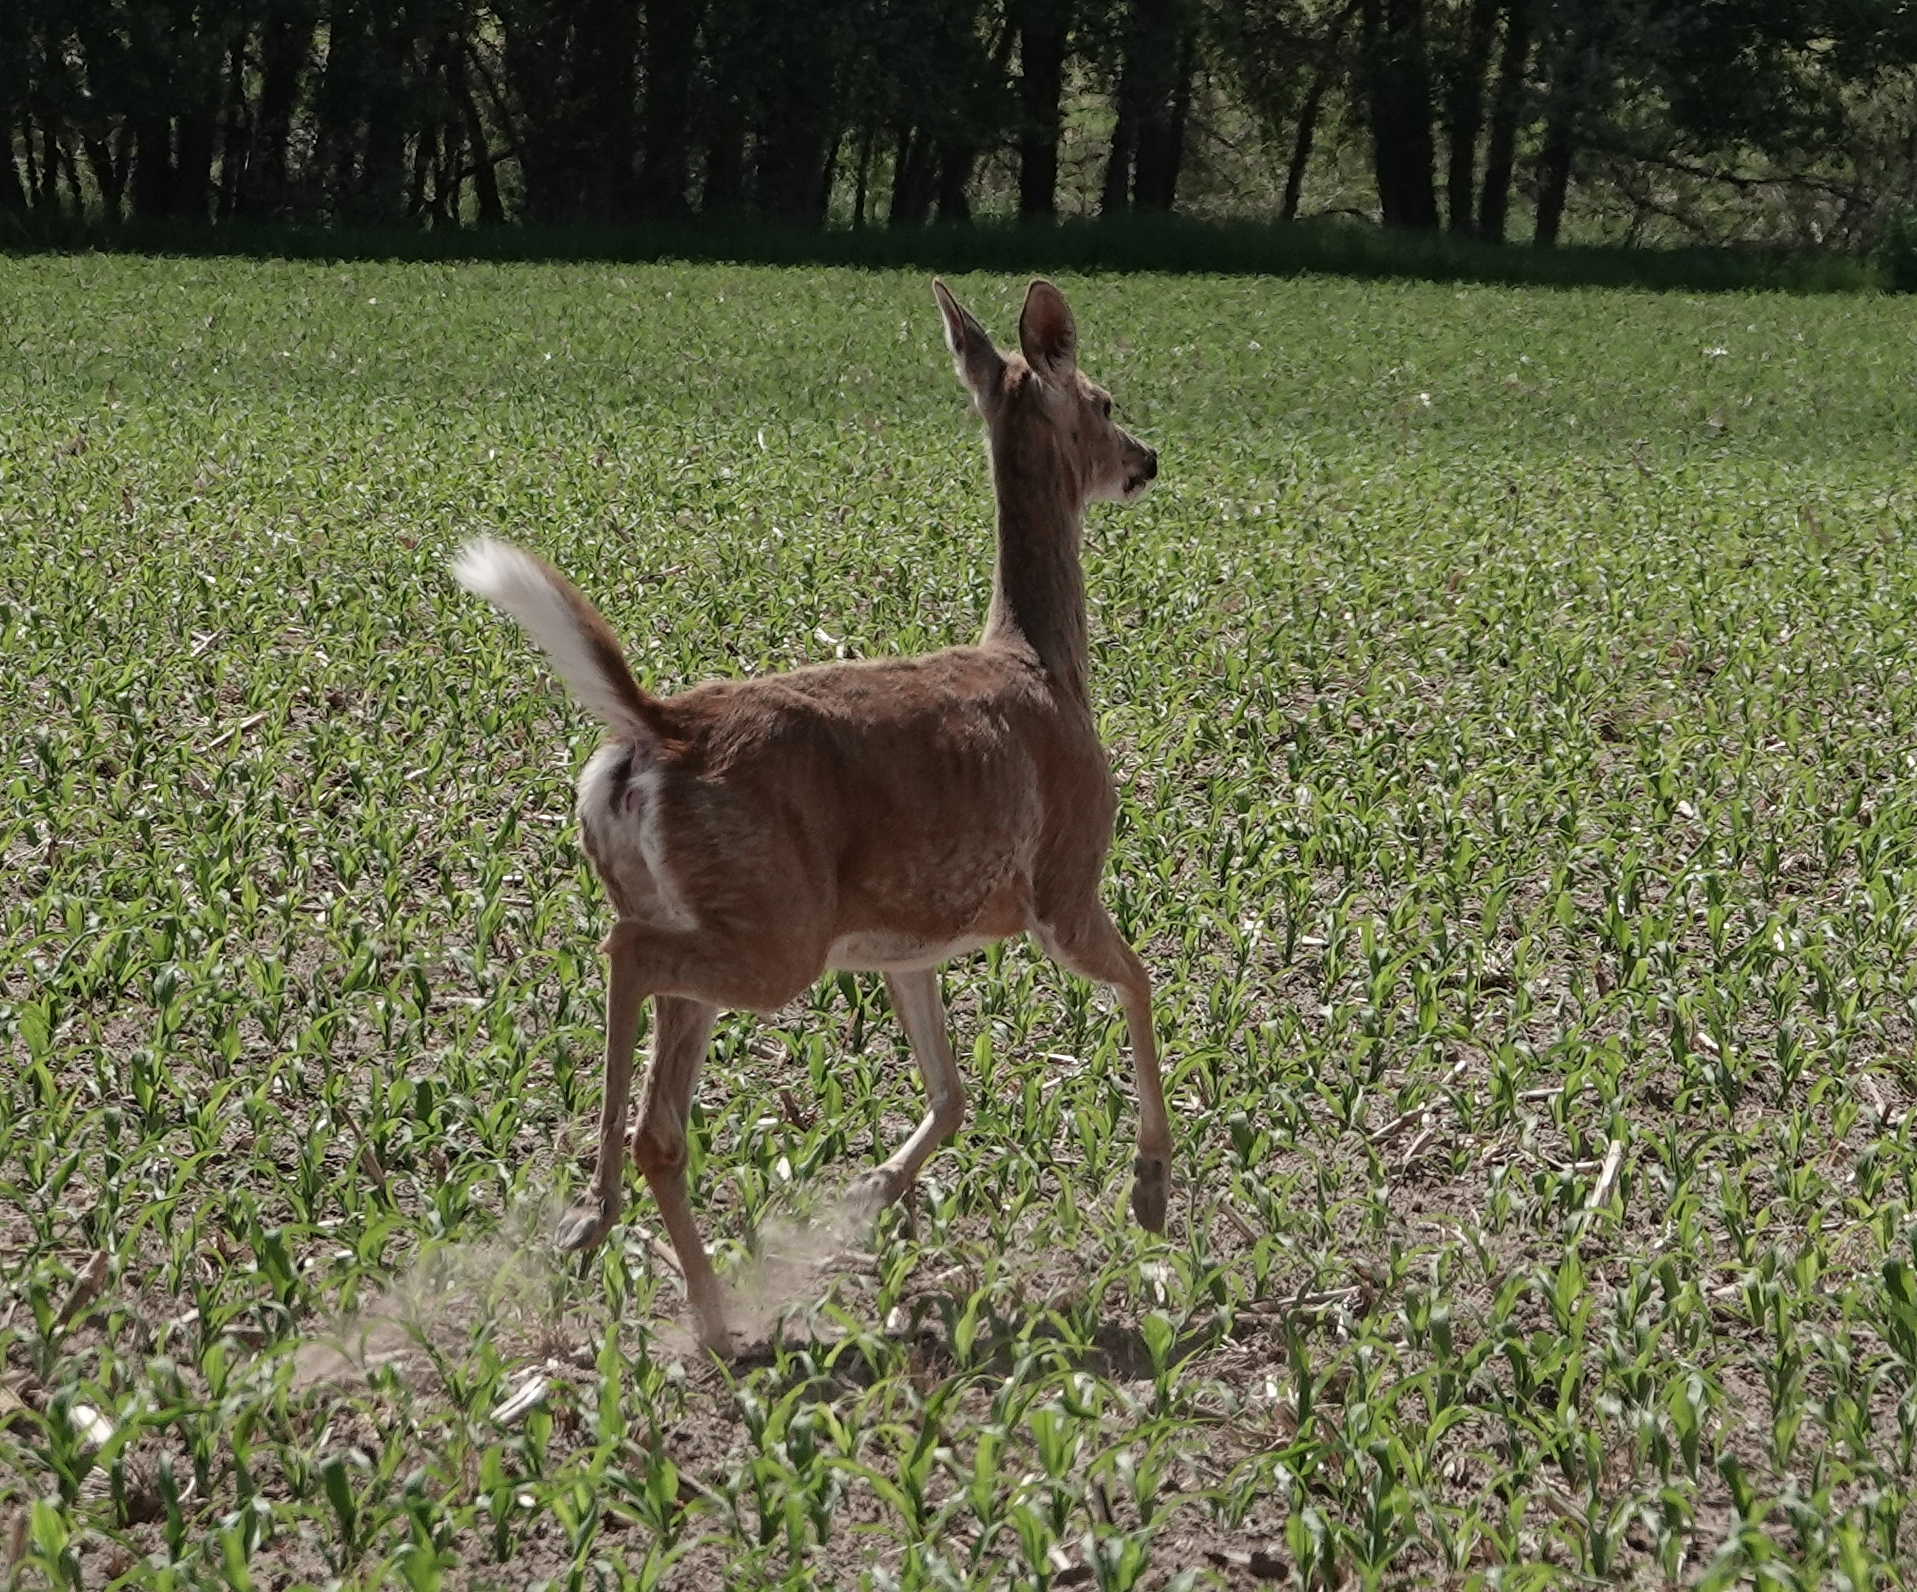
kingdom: Animalia
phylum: Chordata
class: Mammalia
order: Artiodactyla
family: Cervidae
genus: Odocoileus
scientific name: Odocoileus virginianus
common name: White-tailed deer
